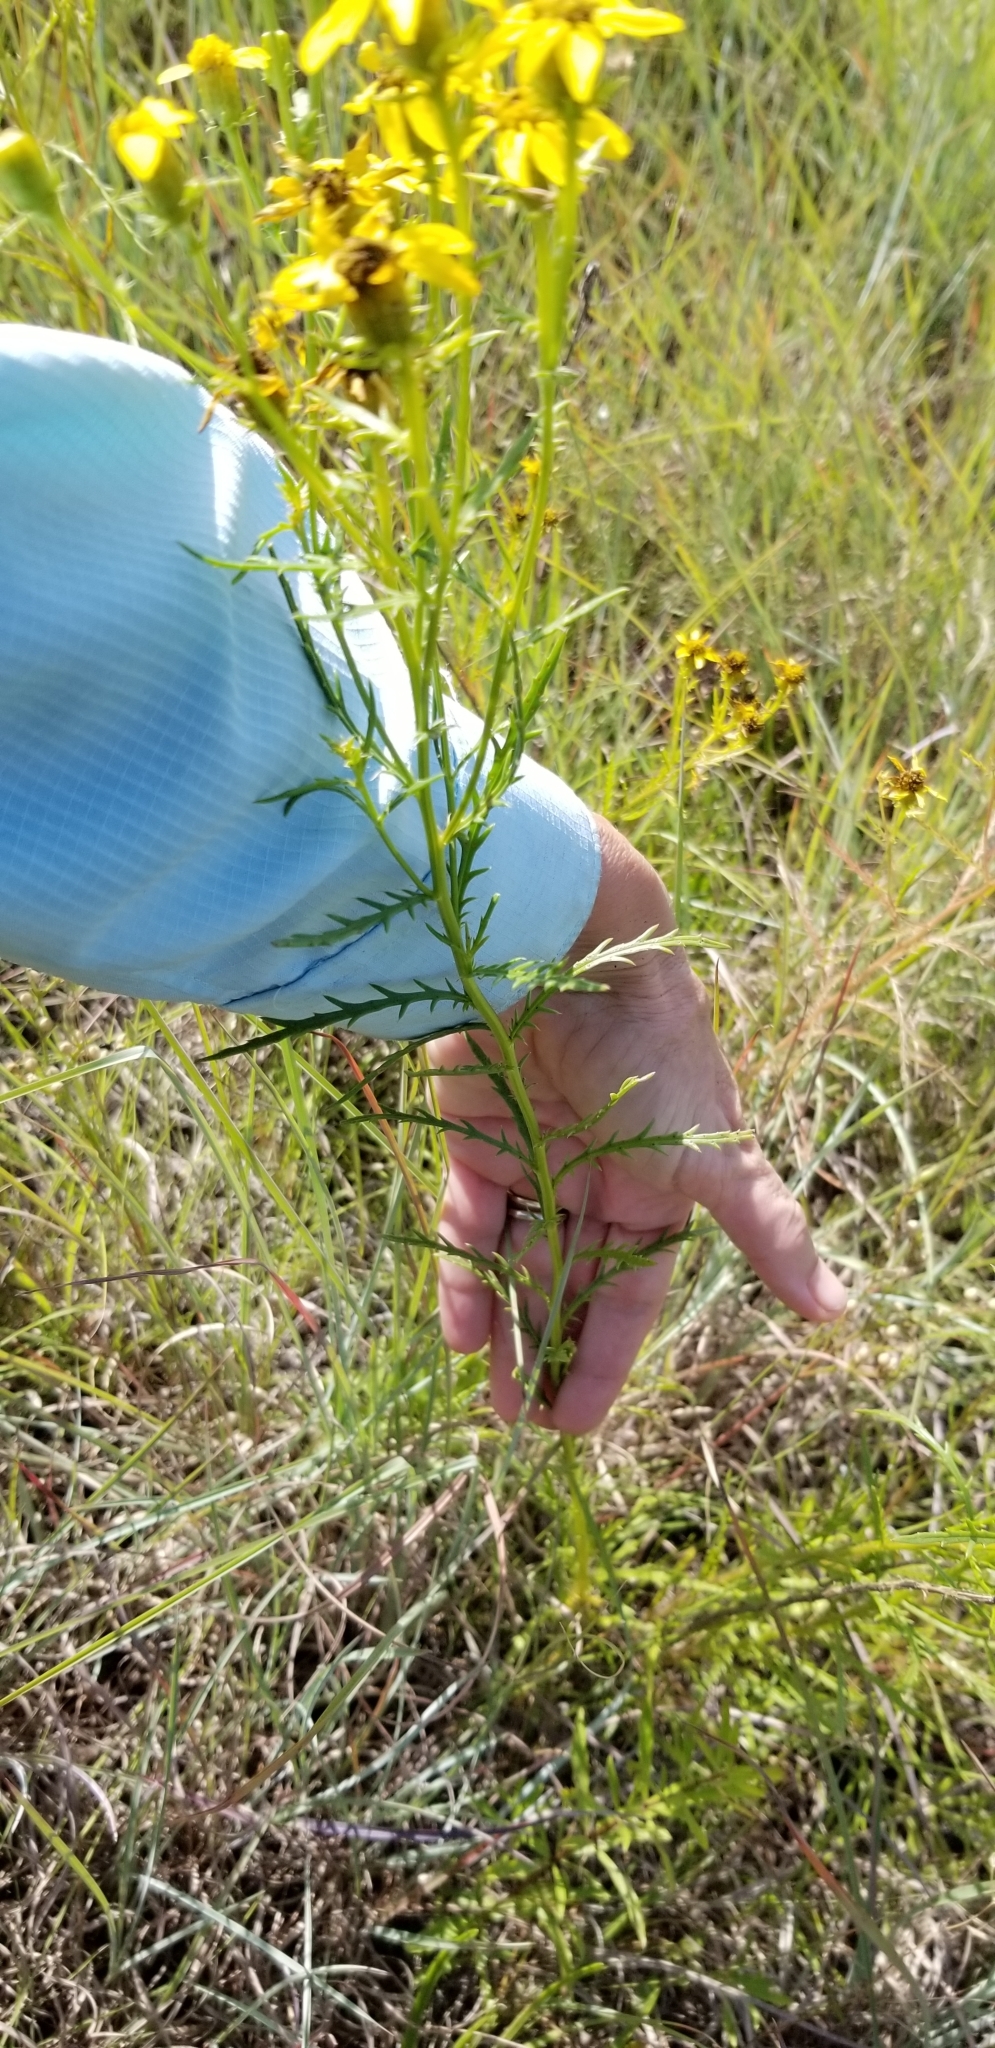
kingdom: Plantae
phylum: Tracheophyta
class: Magnoliopsida
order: Asterales
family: Asteraceae
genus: Dysodiopsis
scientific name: Dysodiopsis tagetoides
